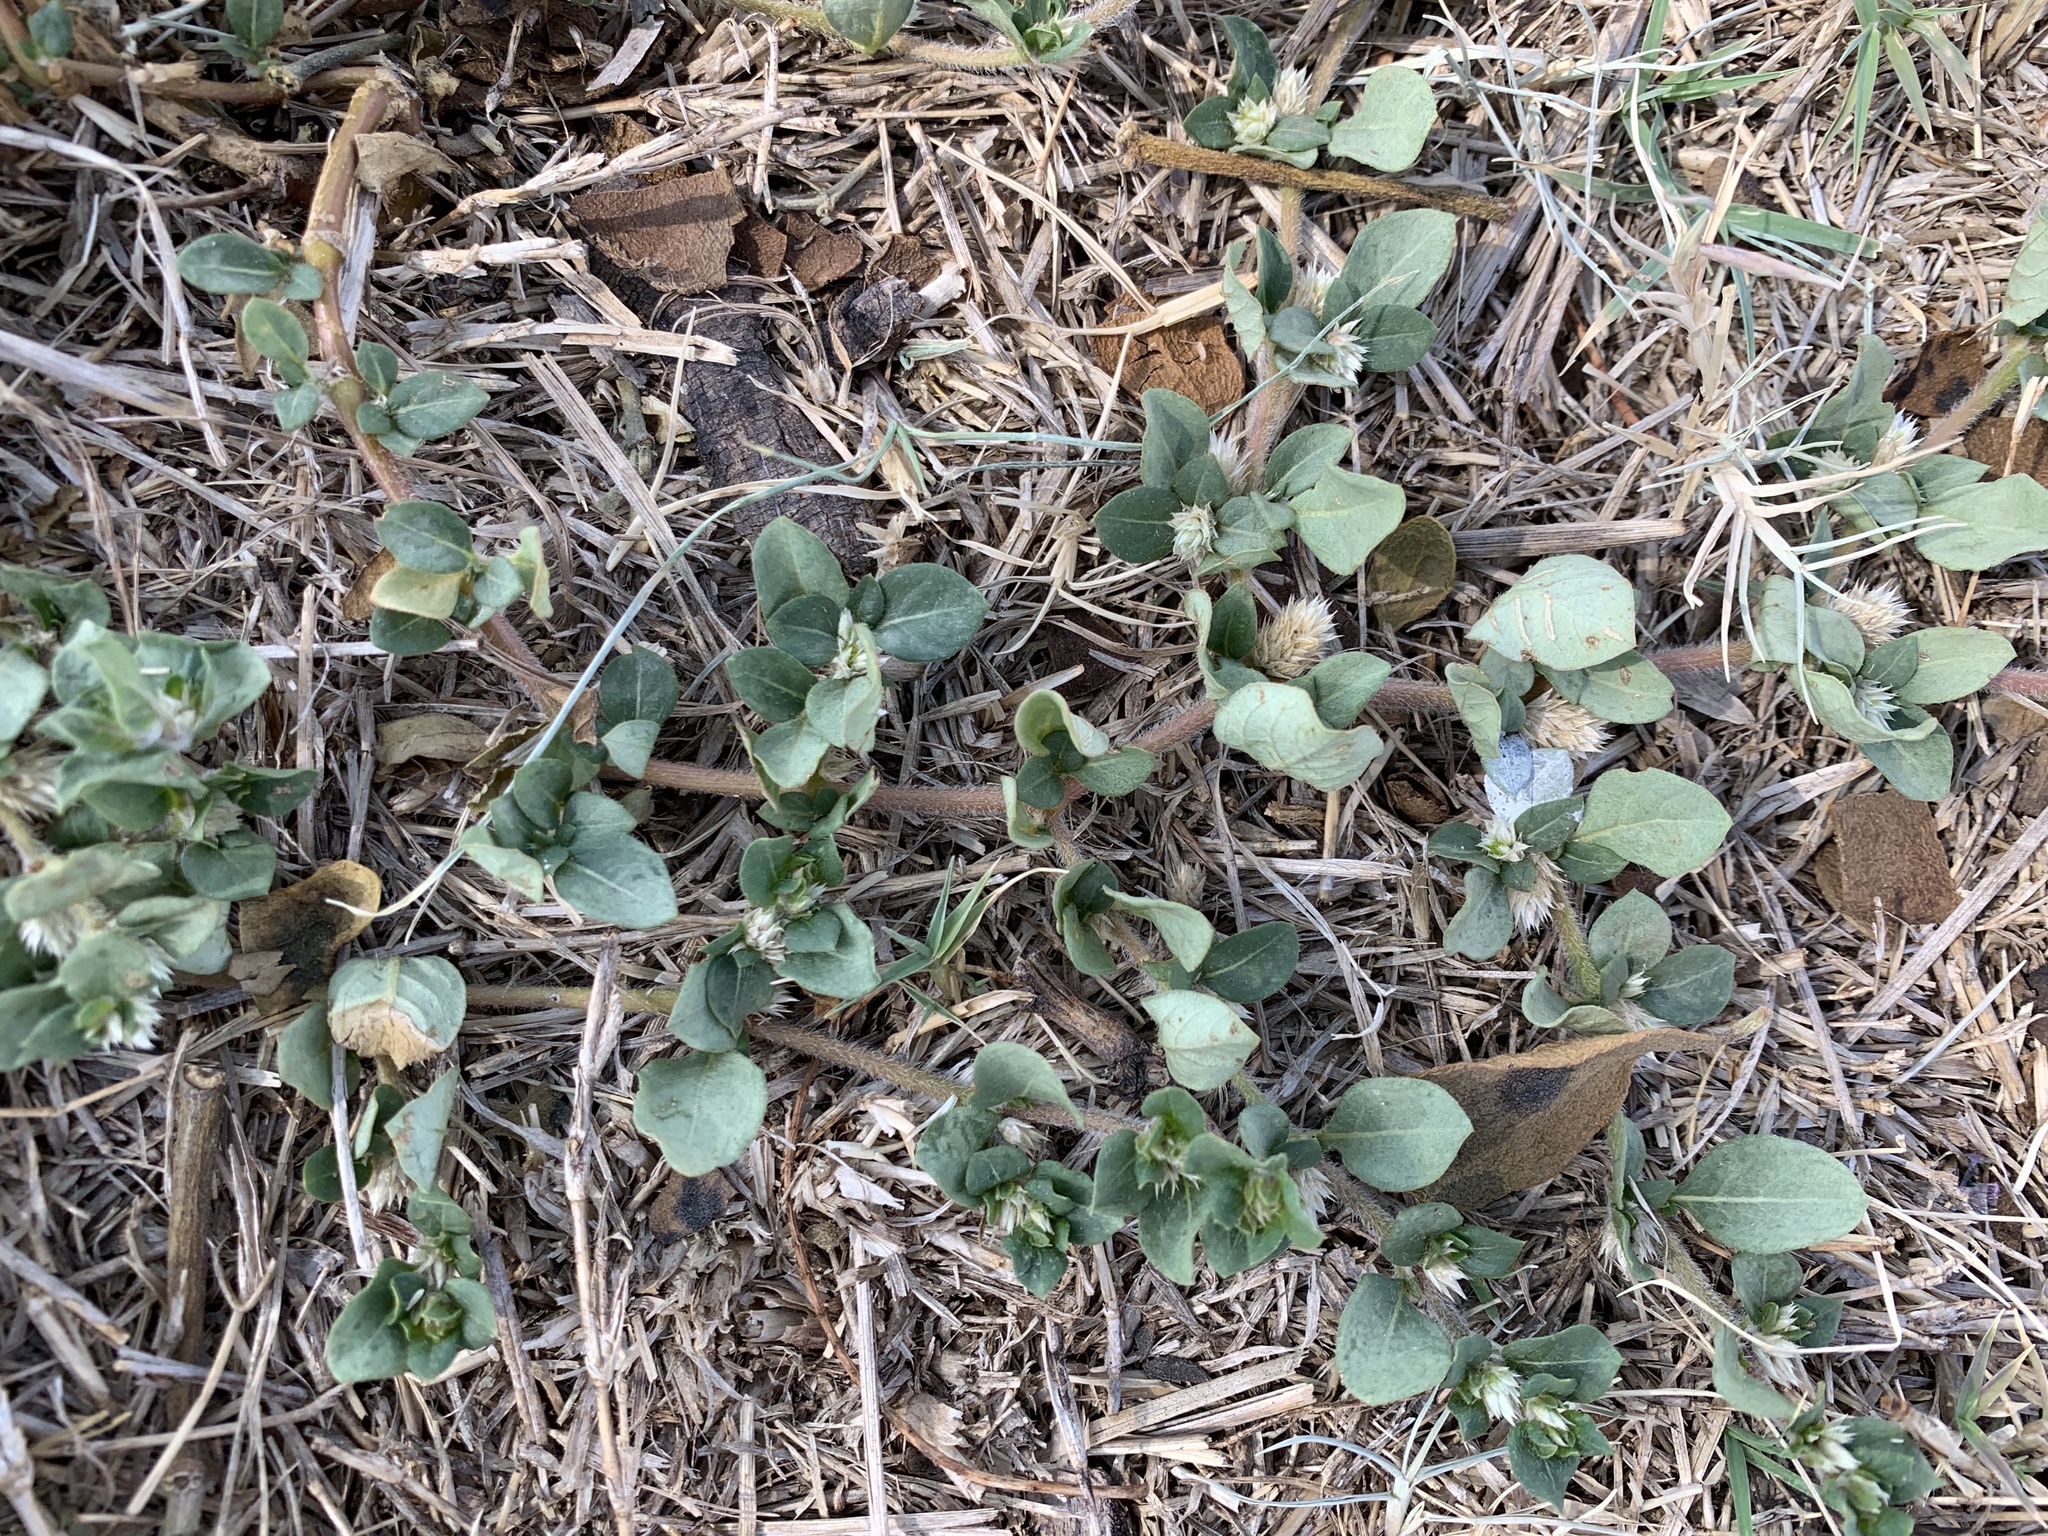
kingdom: Plantae
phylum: Tracheophyta
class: Magnoliopsida
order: Caryophyllales
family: Amaranthaceae
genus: Alternanthera
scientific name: Alternanthera pungens
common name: Khakiweed
